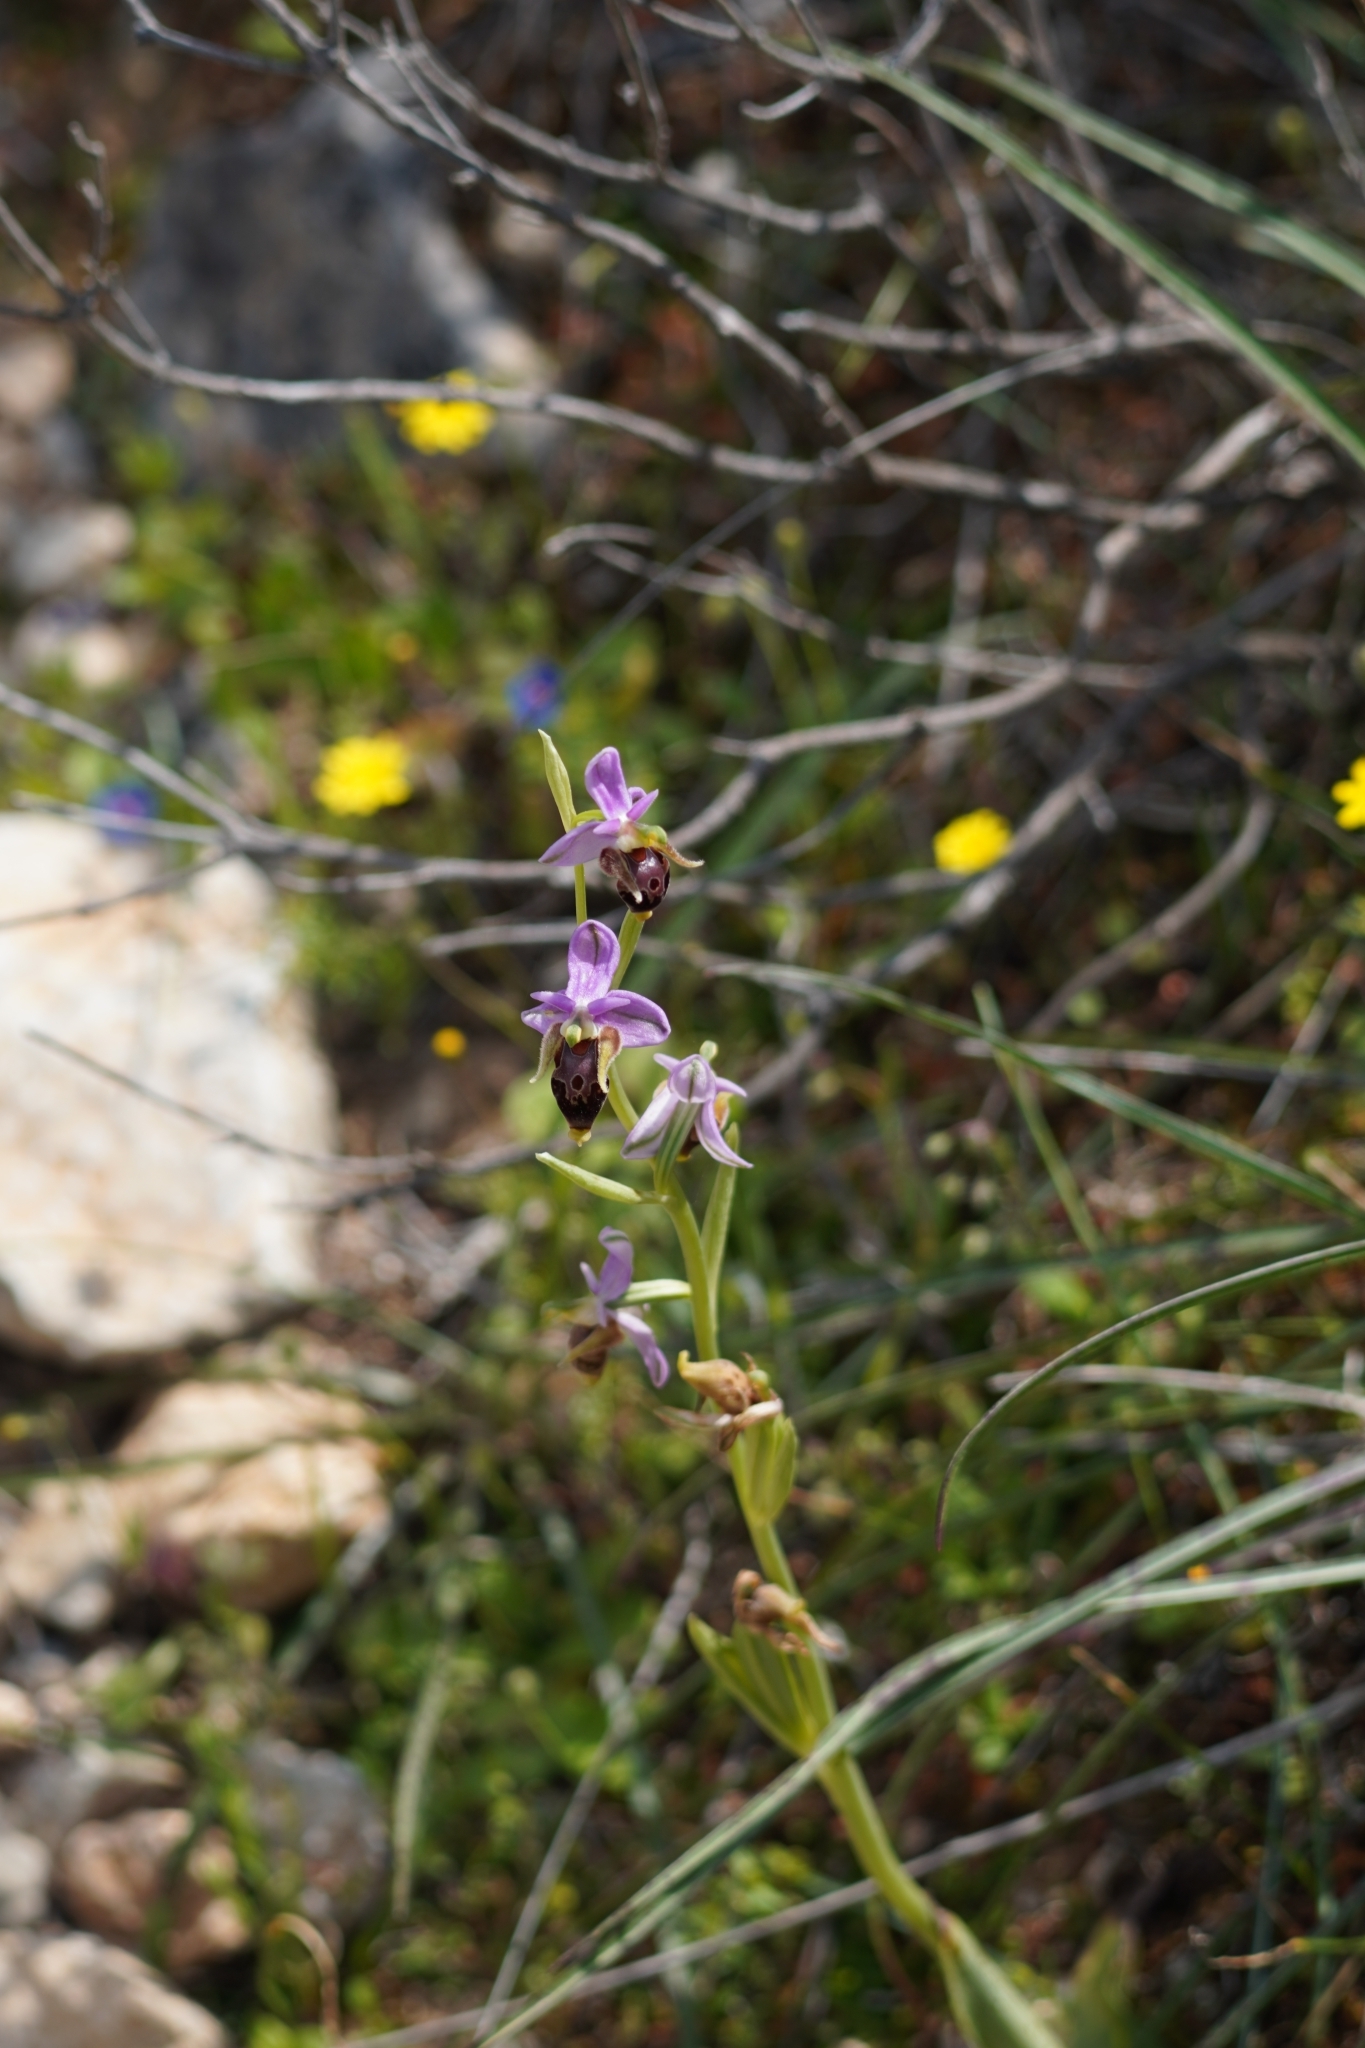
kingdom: Plantae
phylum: Tracheophyta
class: Liliopsida
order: Asparagales
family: Orchidaceae
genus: Ophrys
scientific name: Ophrys
